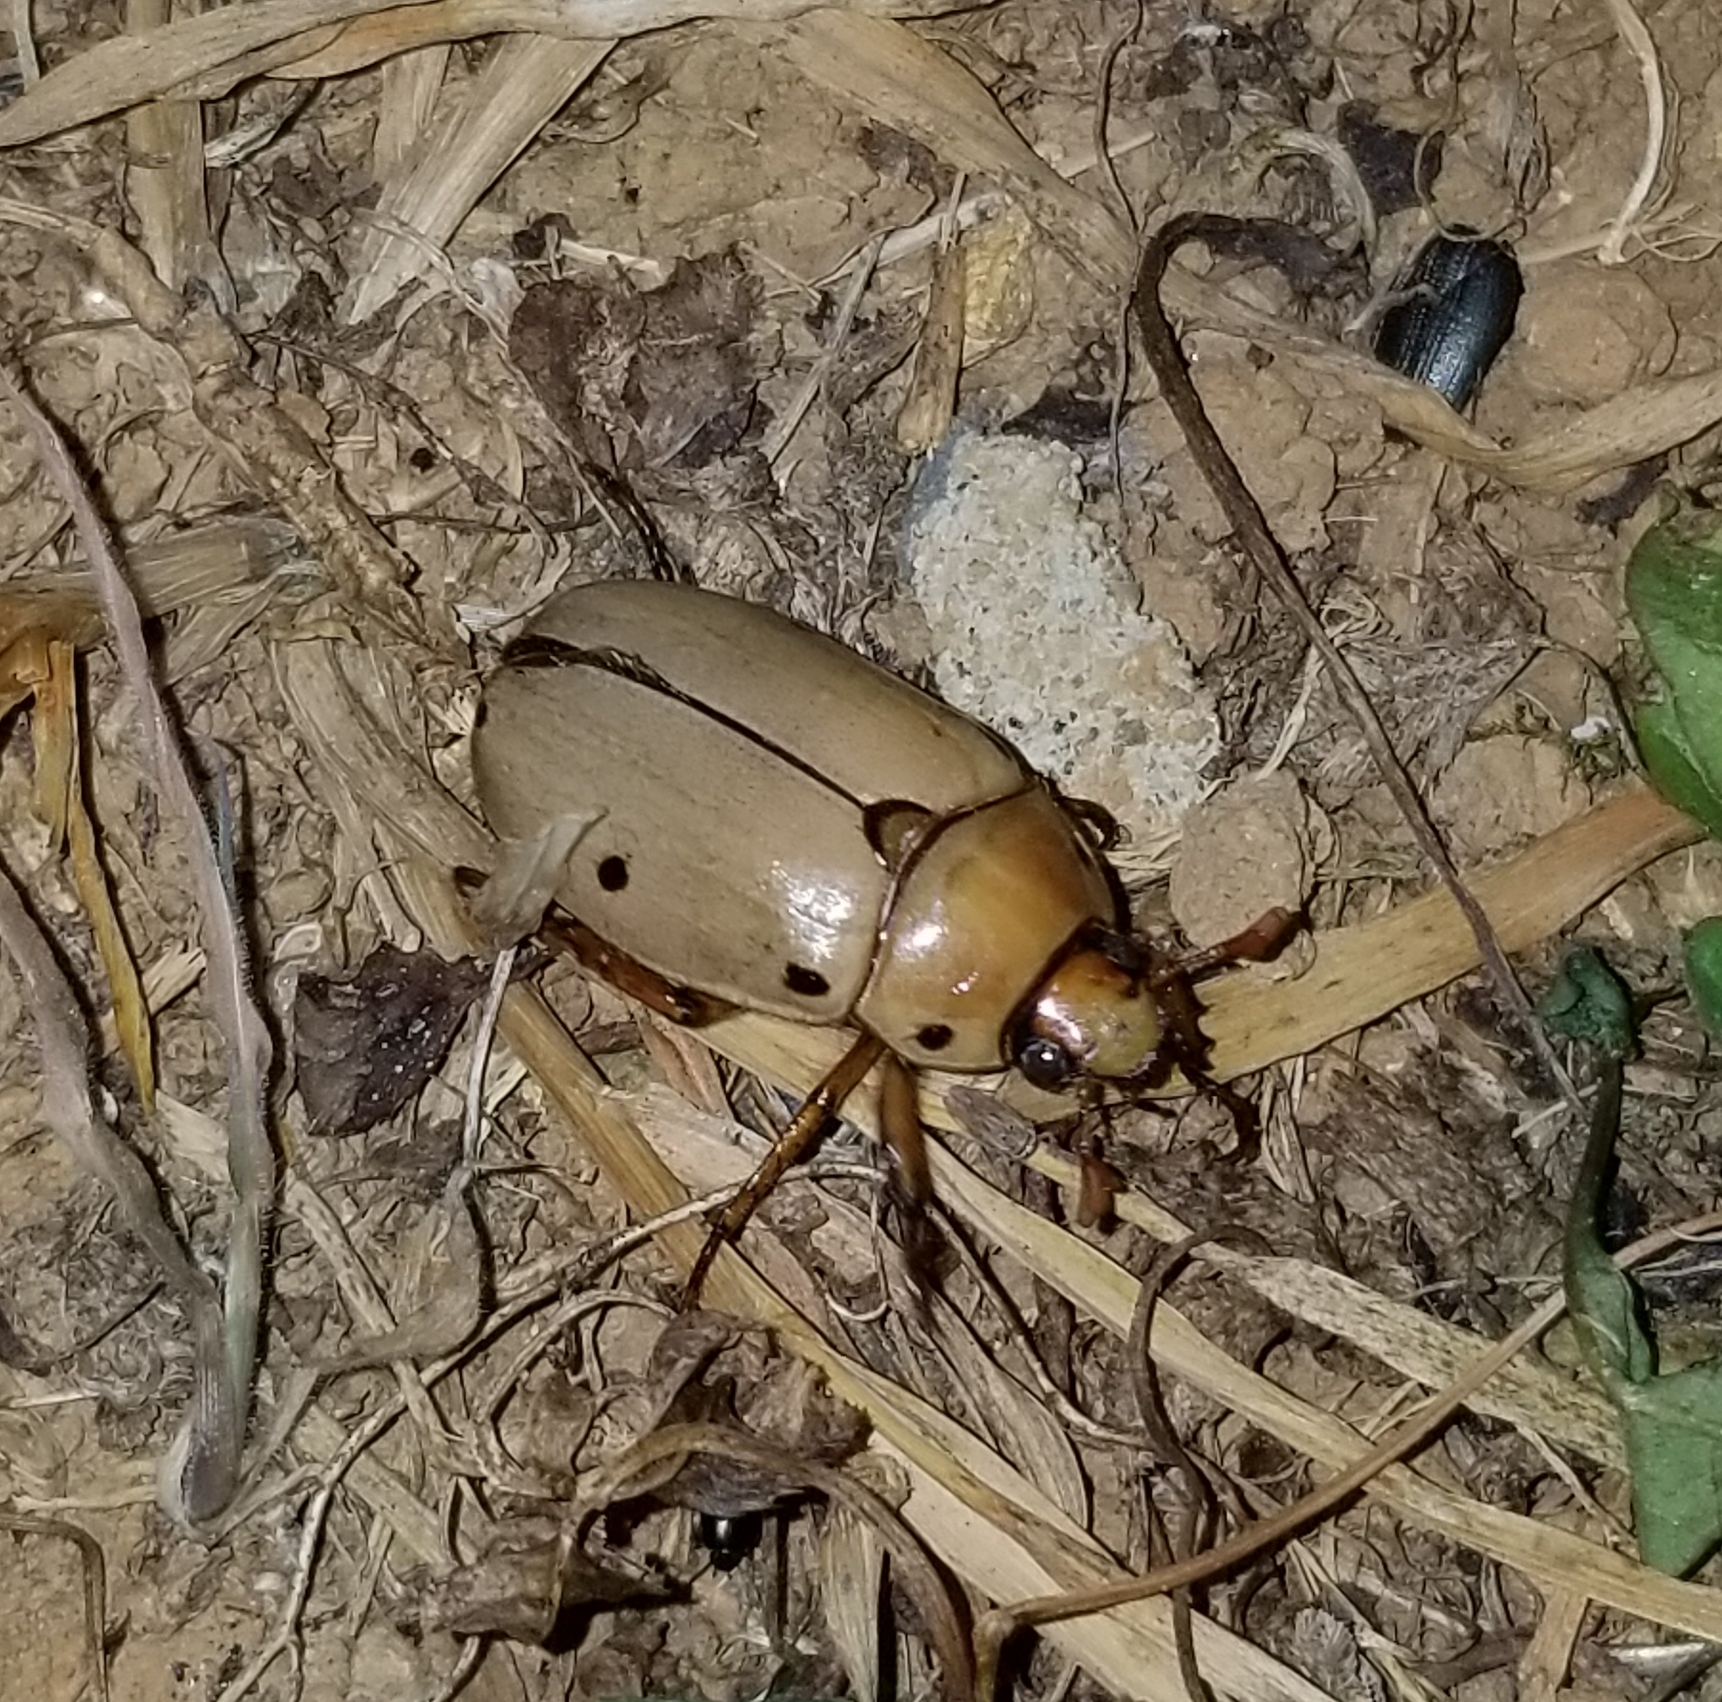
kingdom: Animalia
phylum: Arthropoda
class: Insecta
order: Coleoptera
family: Scarabaeidae
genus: Pelidnota
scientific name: Pelidnota punctata
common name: Grapevine beetle
